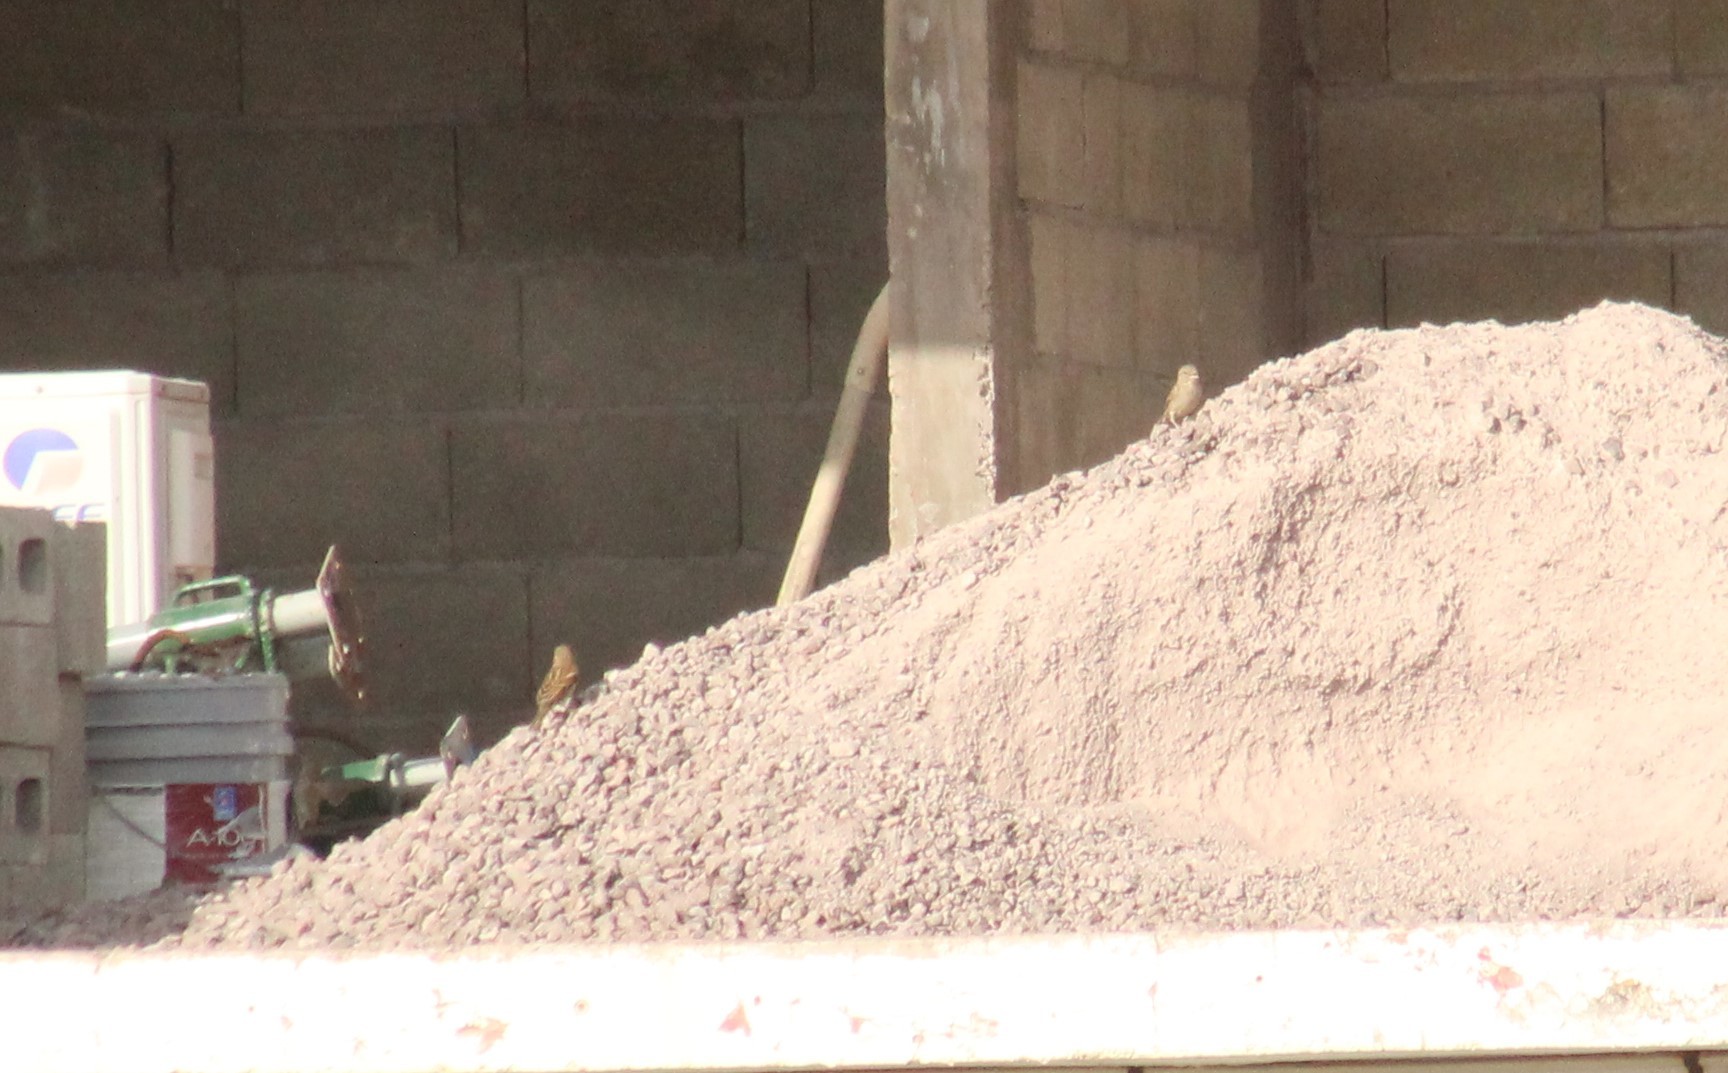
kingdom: Animalia
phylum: Chordata
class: Aves
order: Passeriformes
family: Passeridae
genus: Passer
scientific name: Passer domesticus
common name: House sparrow
